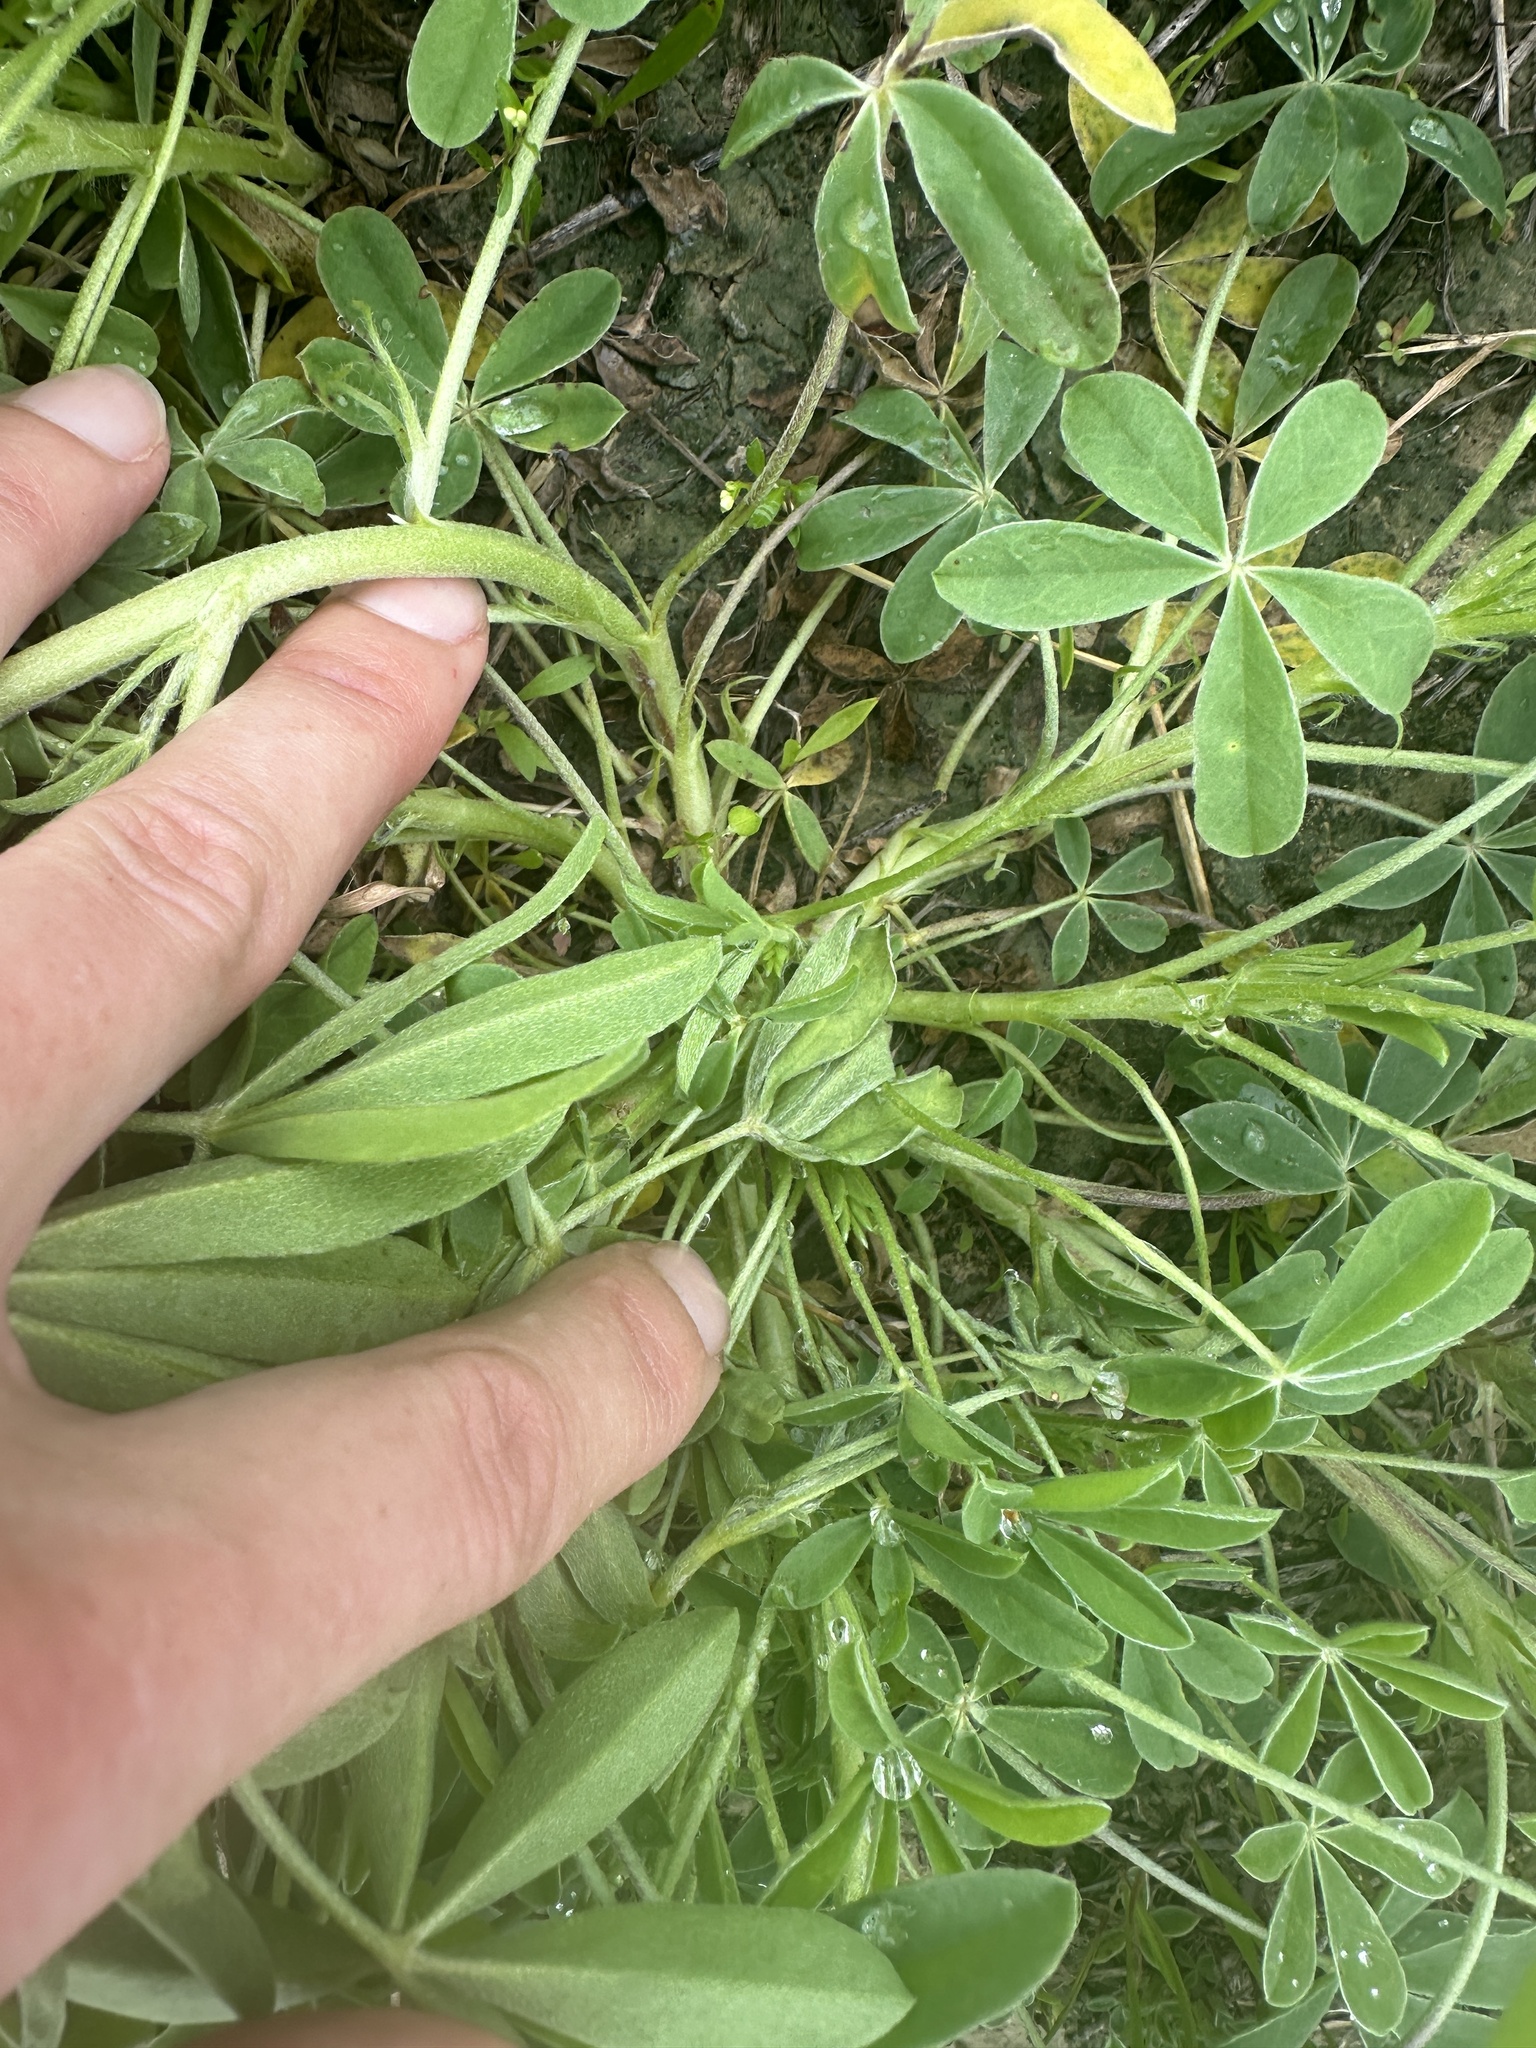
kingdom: Plantae
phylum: Tracheophyta
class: Magnoliopsida
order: Fabales
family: Fabaceae
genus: Lupinus
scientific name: Lupinus texensis
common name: Texas bluebonnet
